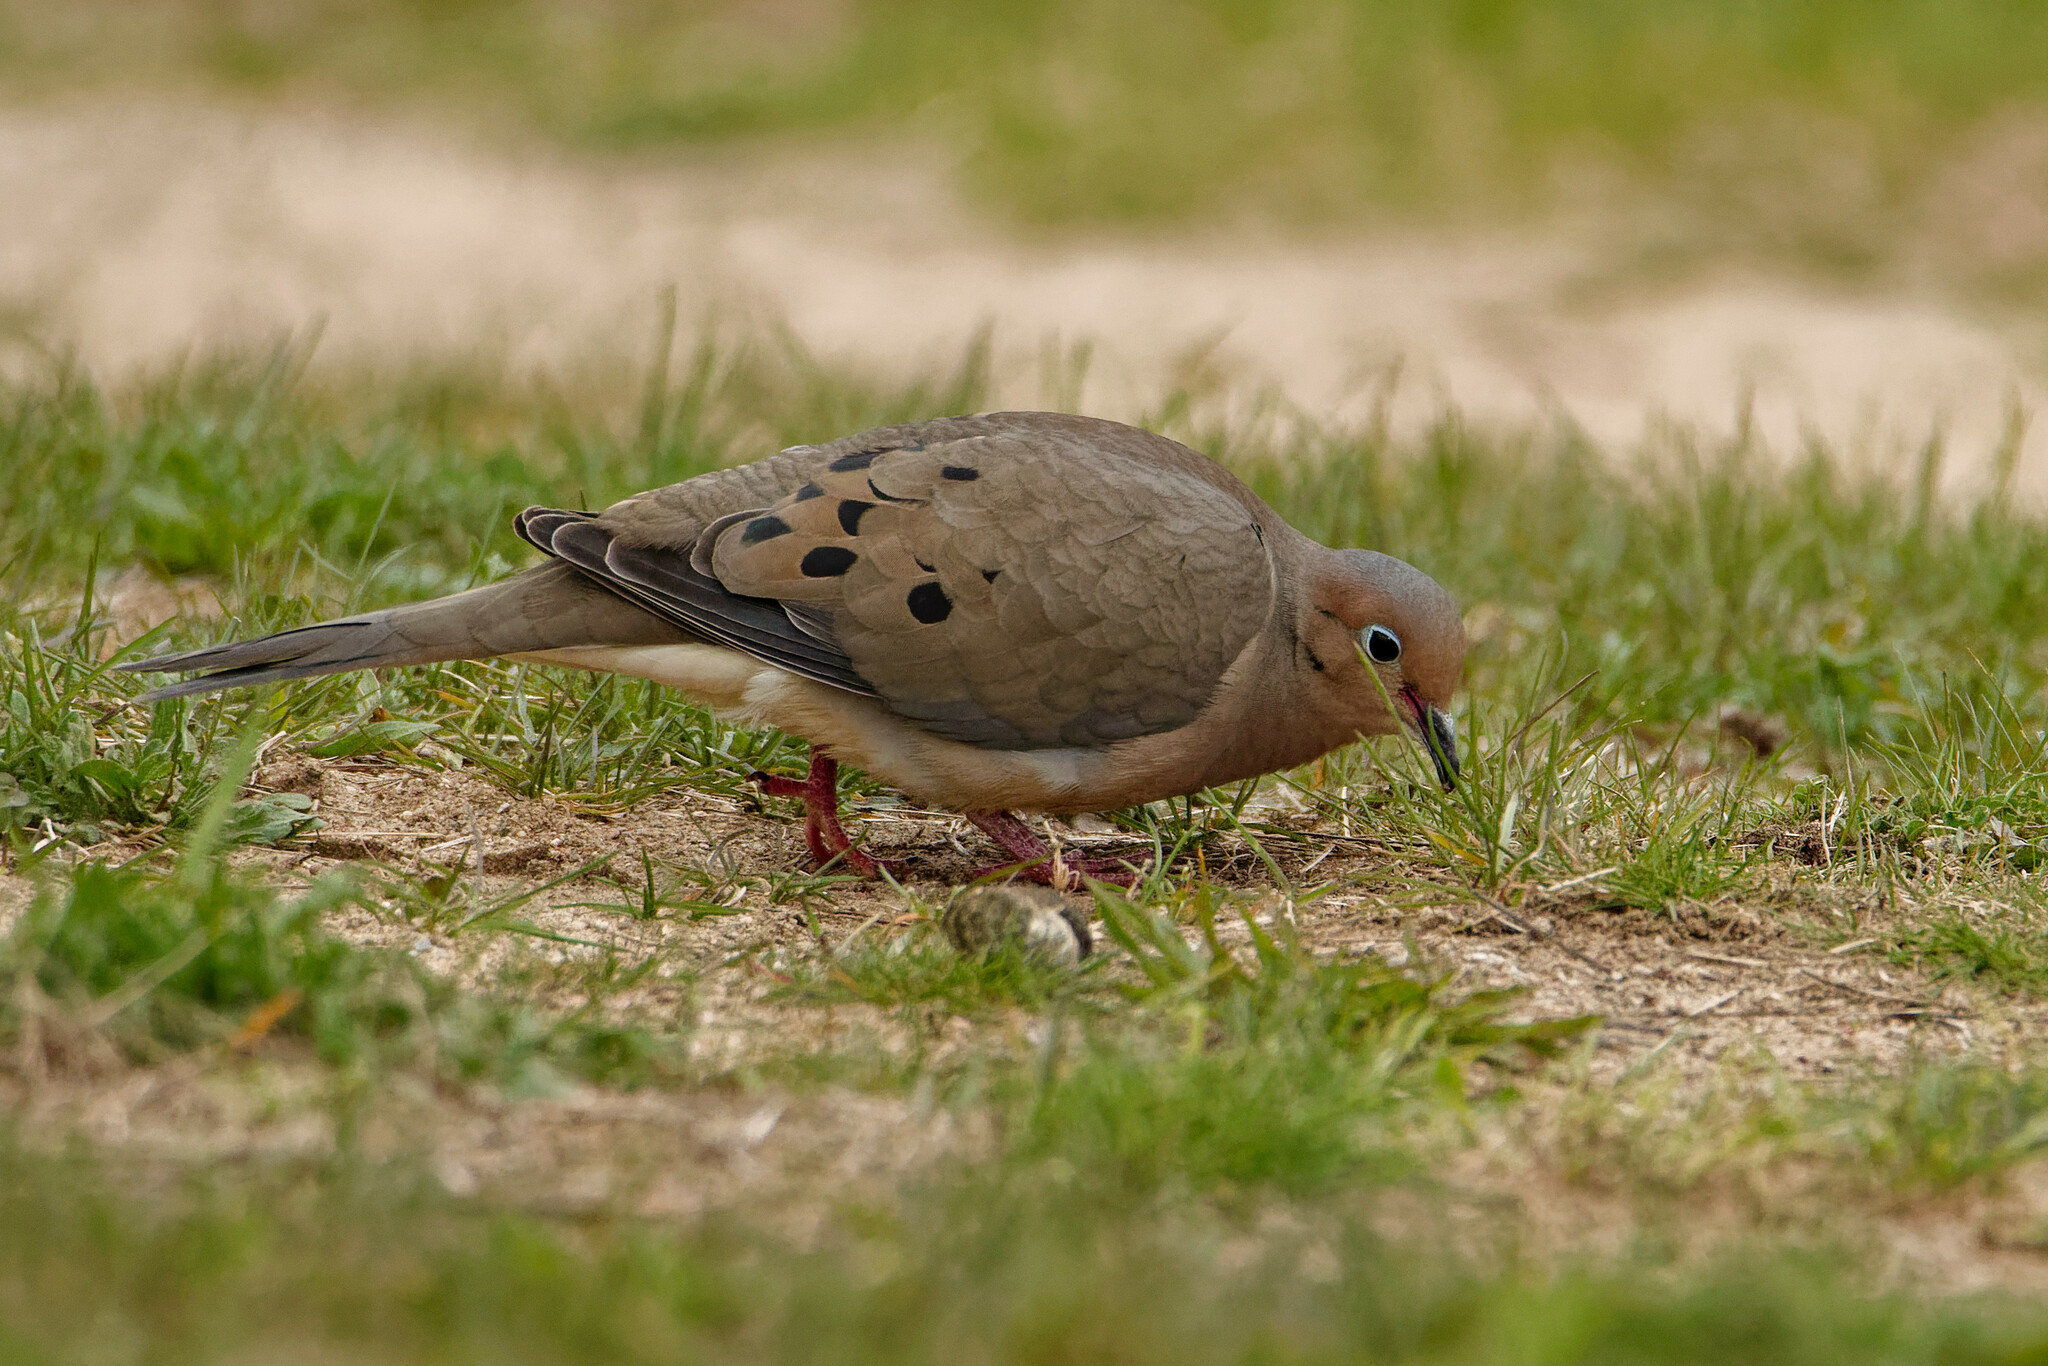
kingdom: Animalia
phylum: Chordata
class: Aves
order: Columbiformes
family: Columbidae
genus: Zenaida
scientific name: Zenaida macroura
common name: Mourning dove
